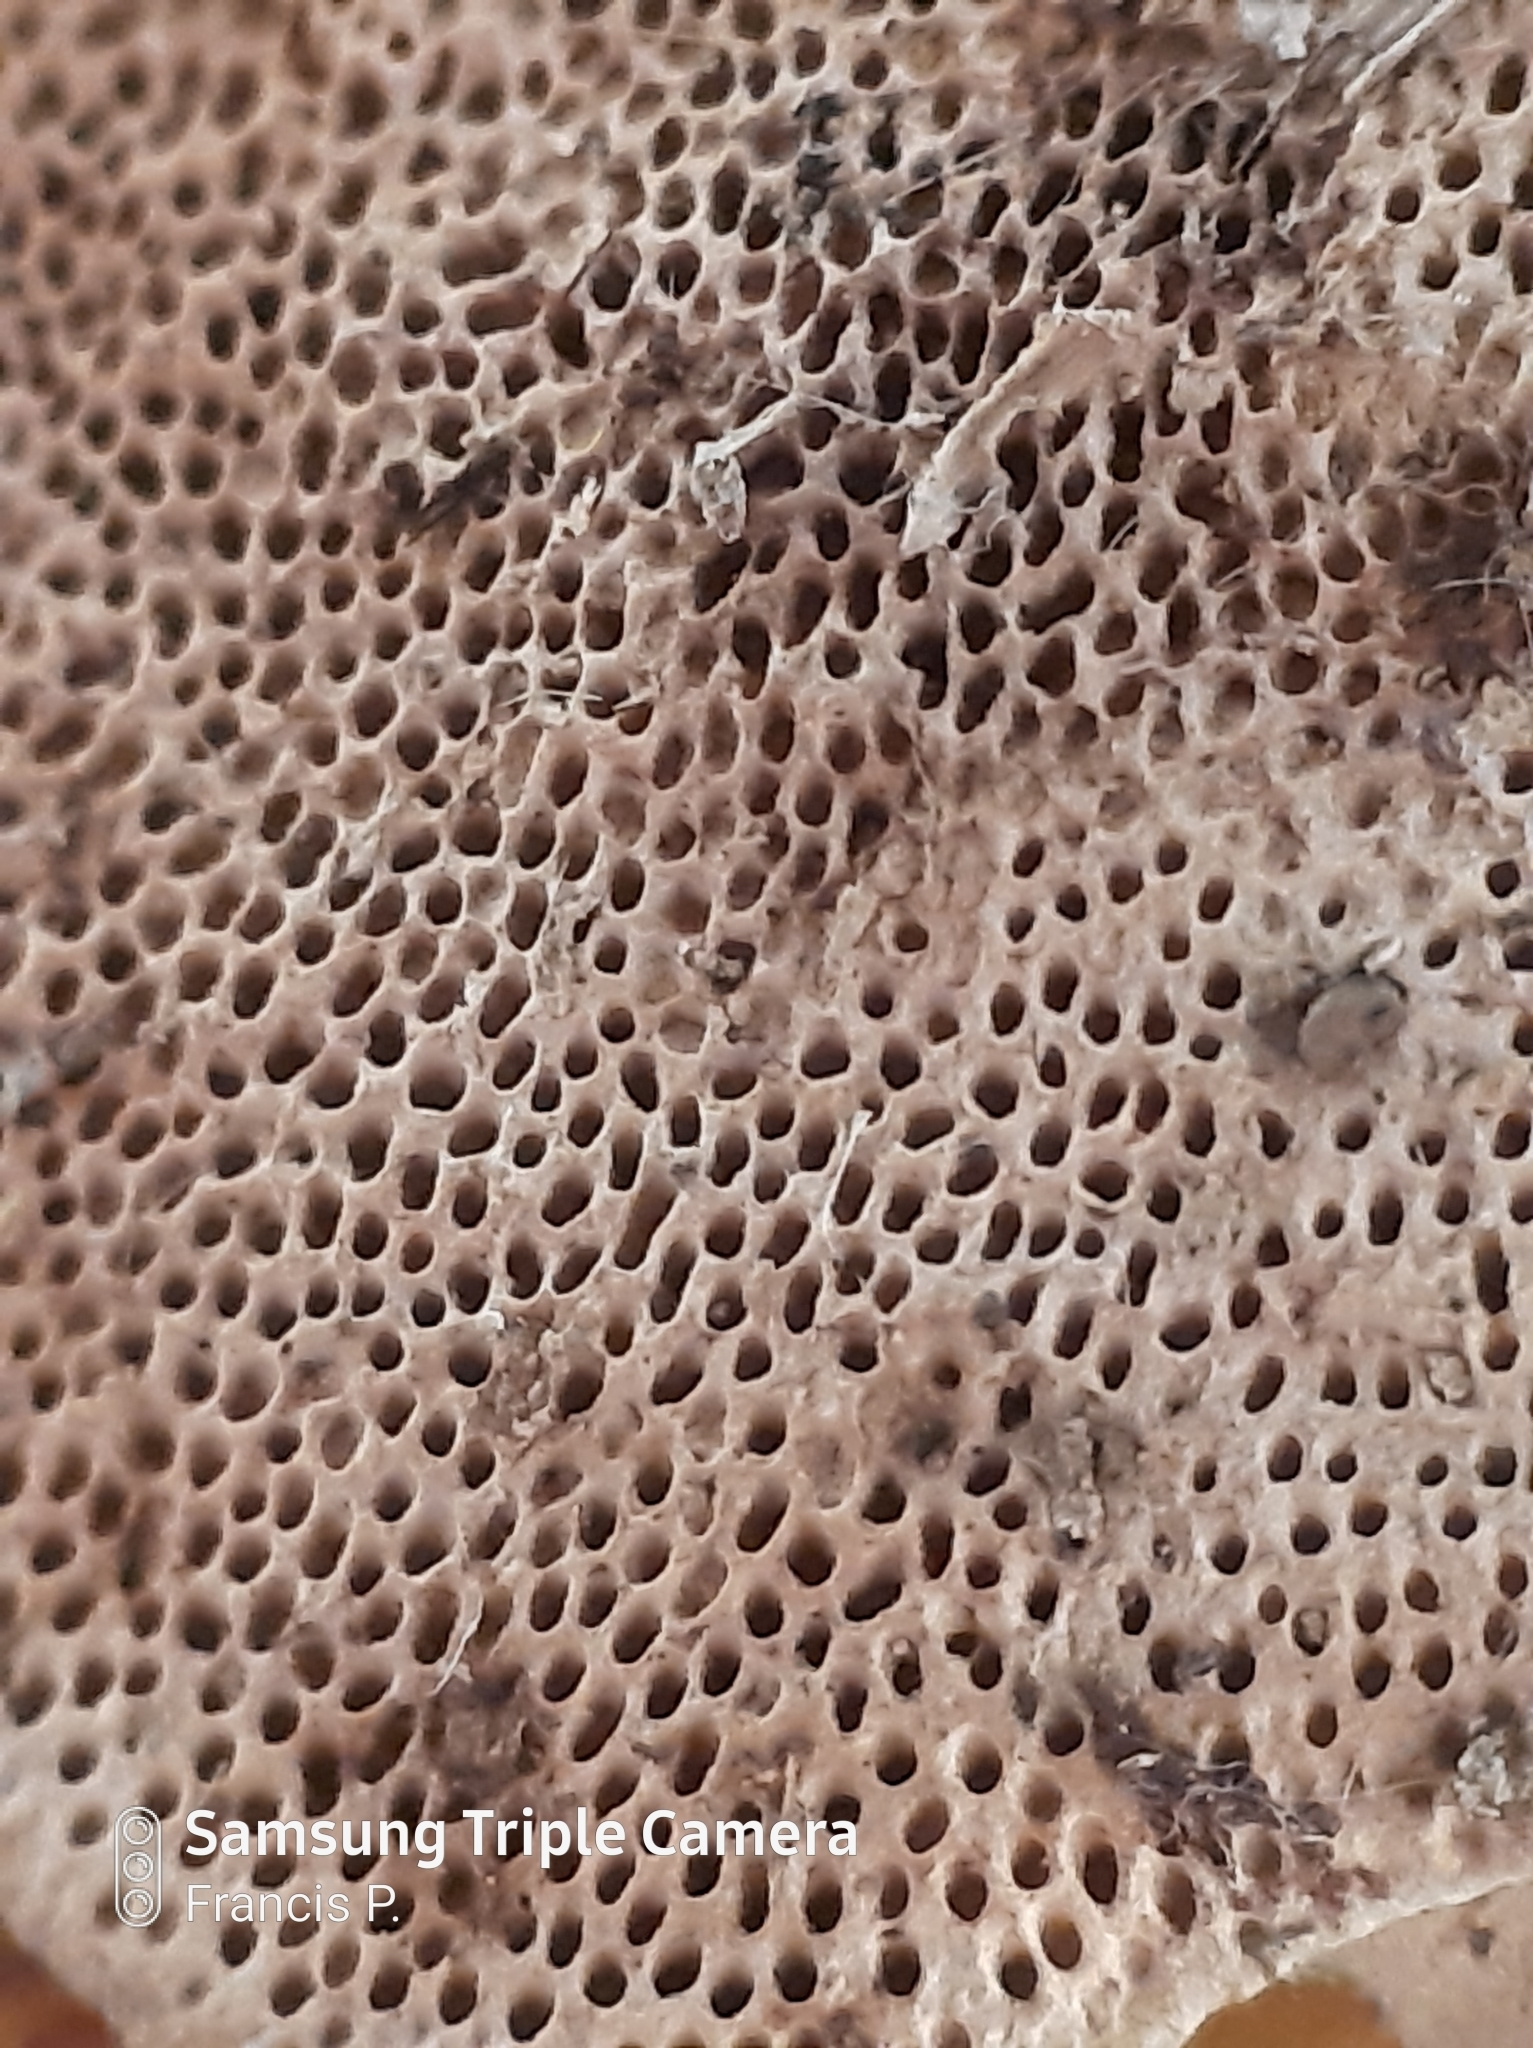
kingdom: Fungi
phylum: Basidiomycota
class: Agaricomycetes
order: Polyporales
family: Polyporaceae
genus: Trametes
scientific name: Trametes hirsuta
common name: Hairy bracket
